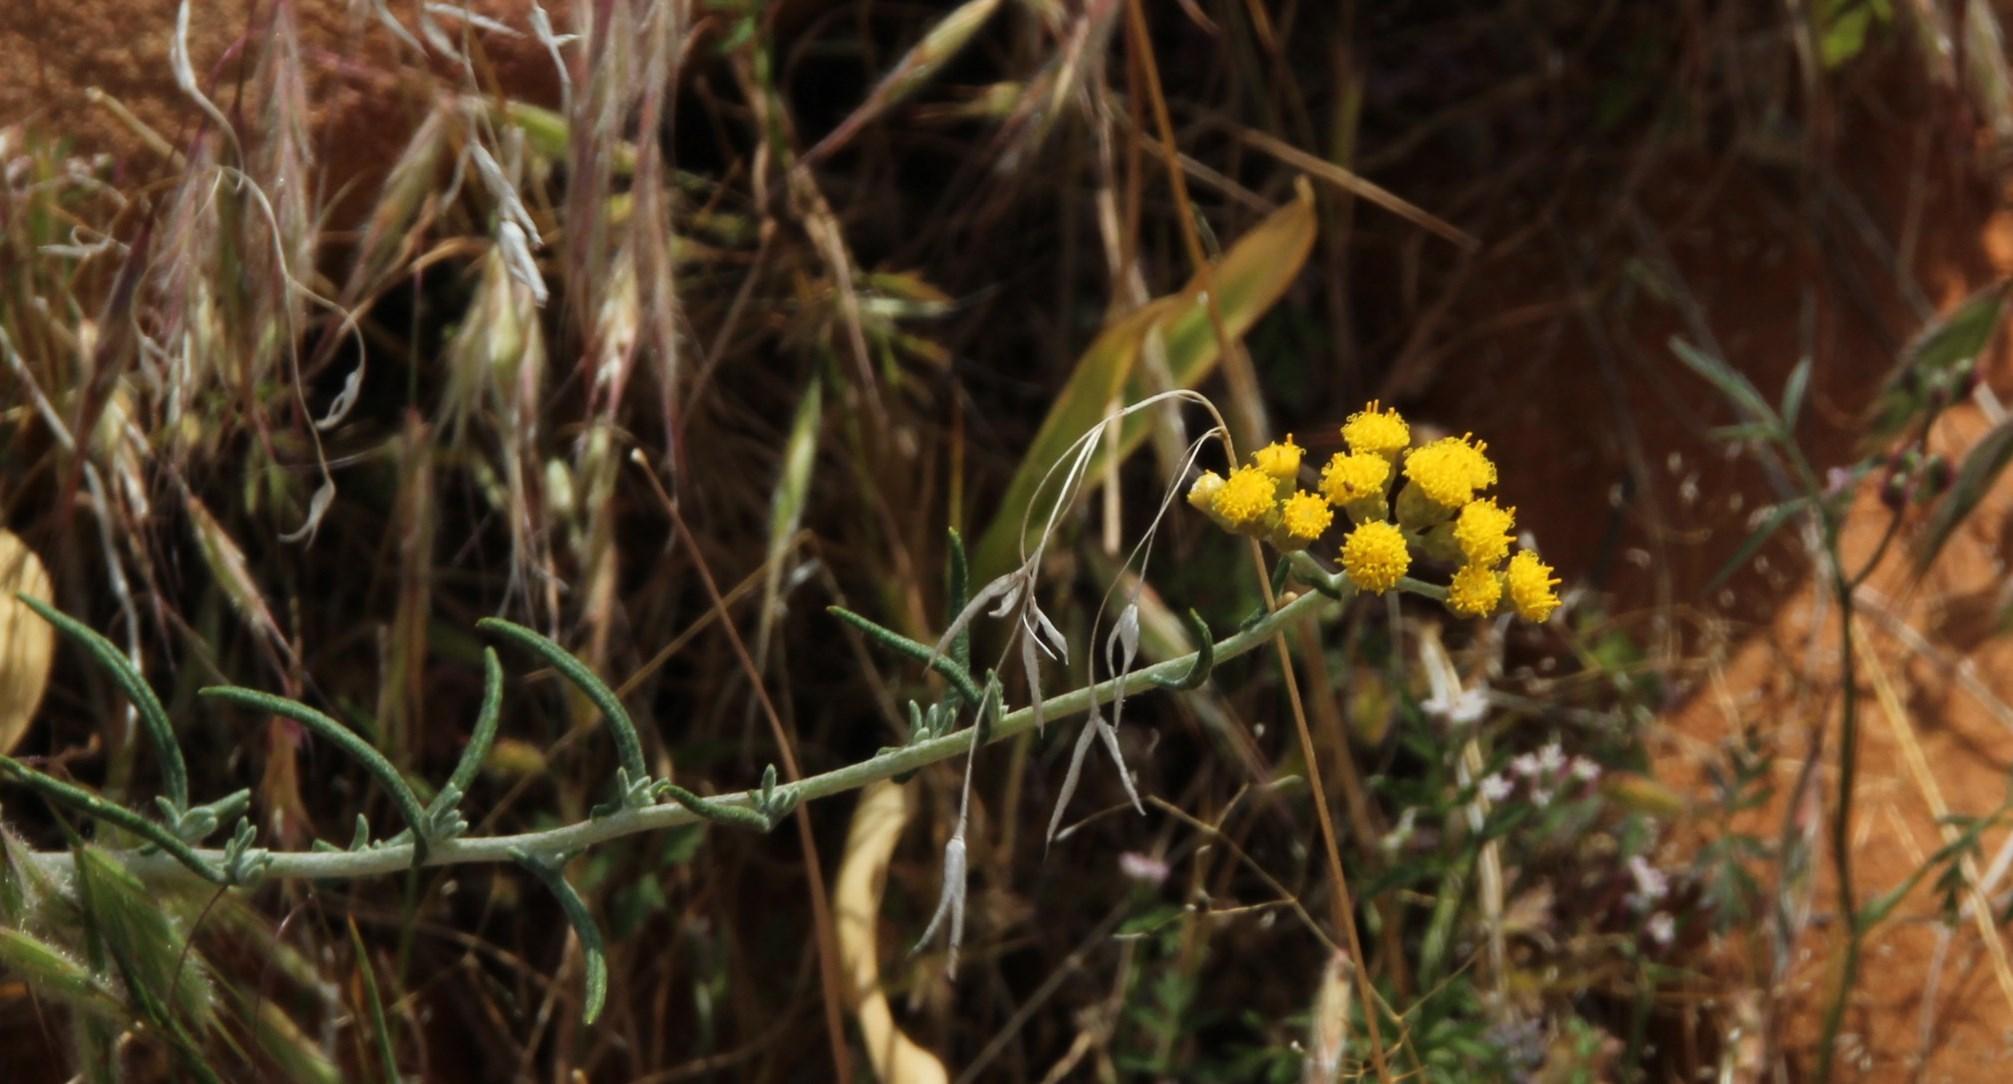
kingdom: Plantae
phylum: Tracheophyta
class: Magnoliopsida
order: Asterales
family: Asteraceae
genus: Helichrysum
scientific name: Helichrysum revolutum
